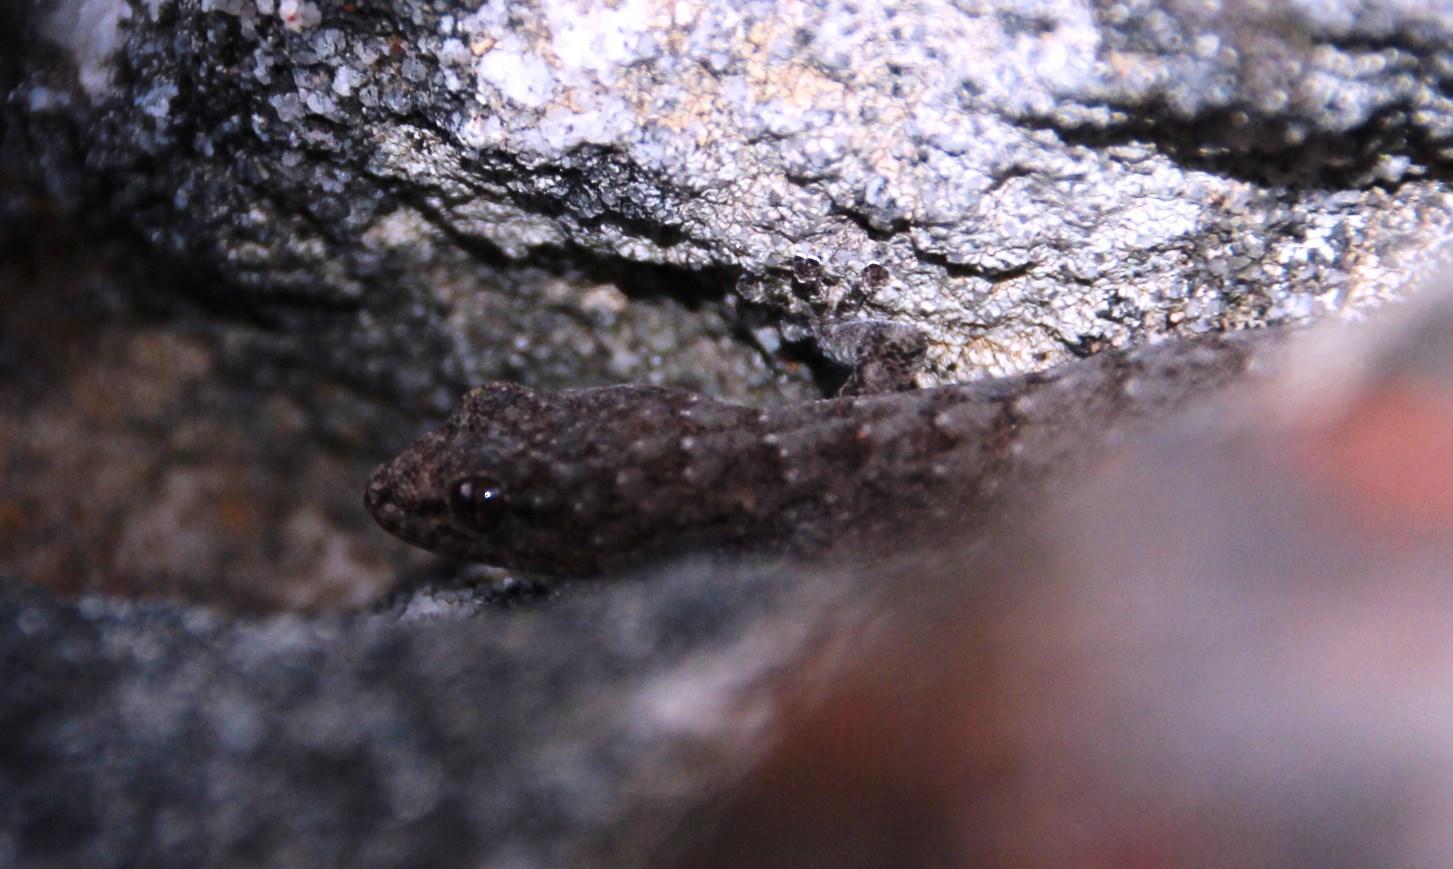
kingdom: Animalia
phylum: Chordata
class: Squamata
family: Gekkonidae
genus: Goggia
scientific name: Goggia hexapora
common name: Cedarberg dwarf leaf-toed gecko
